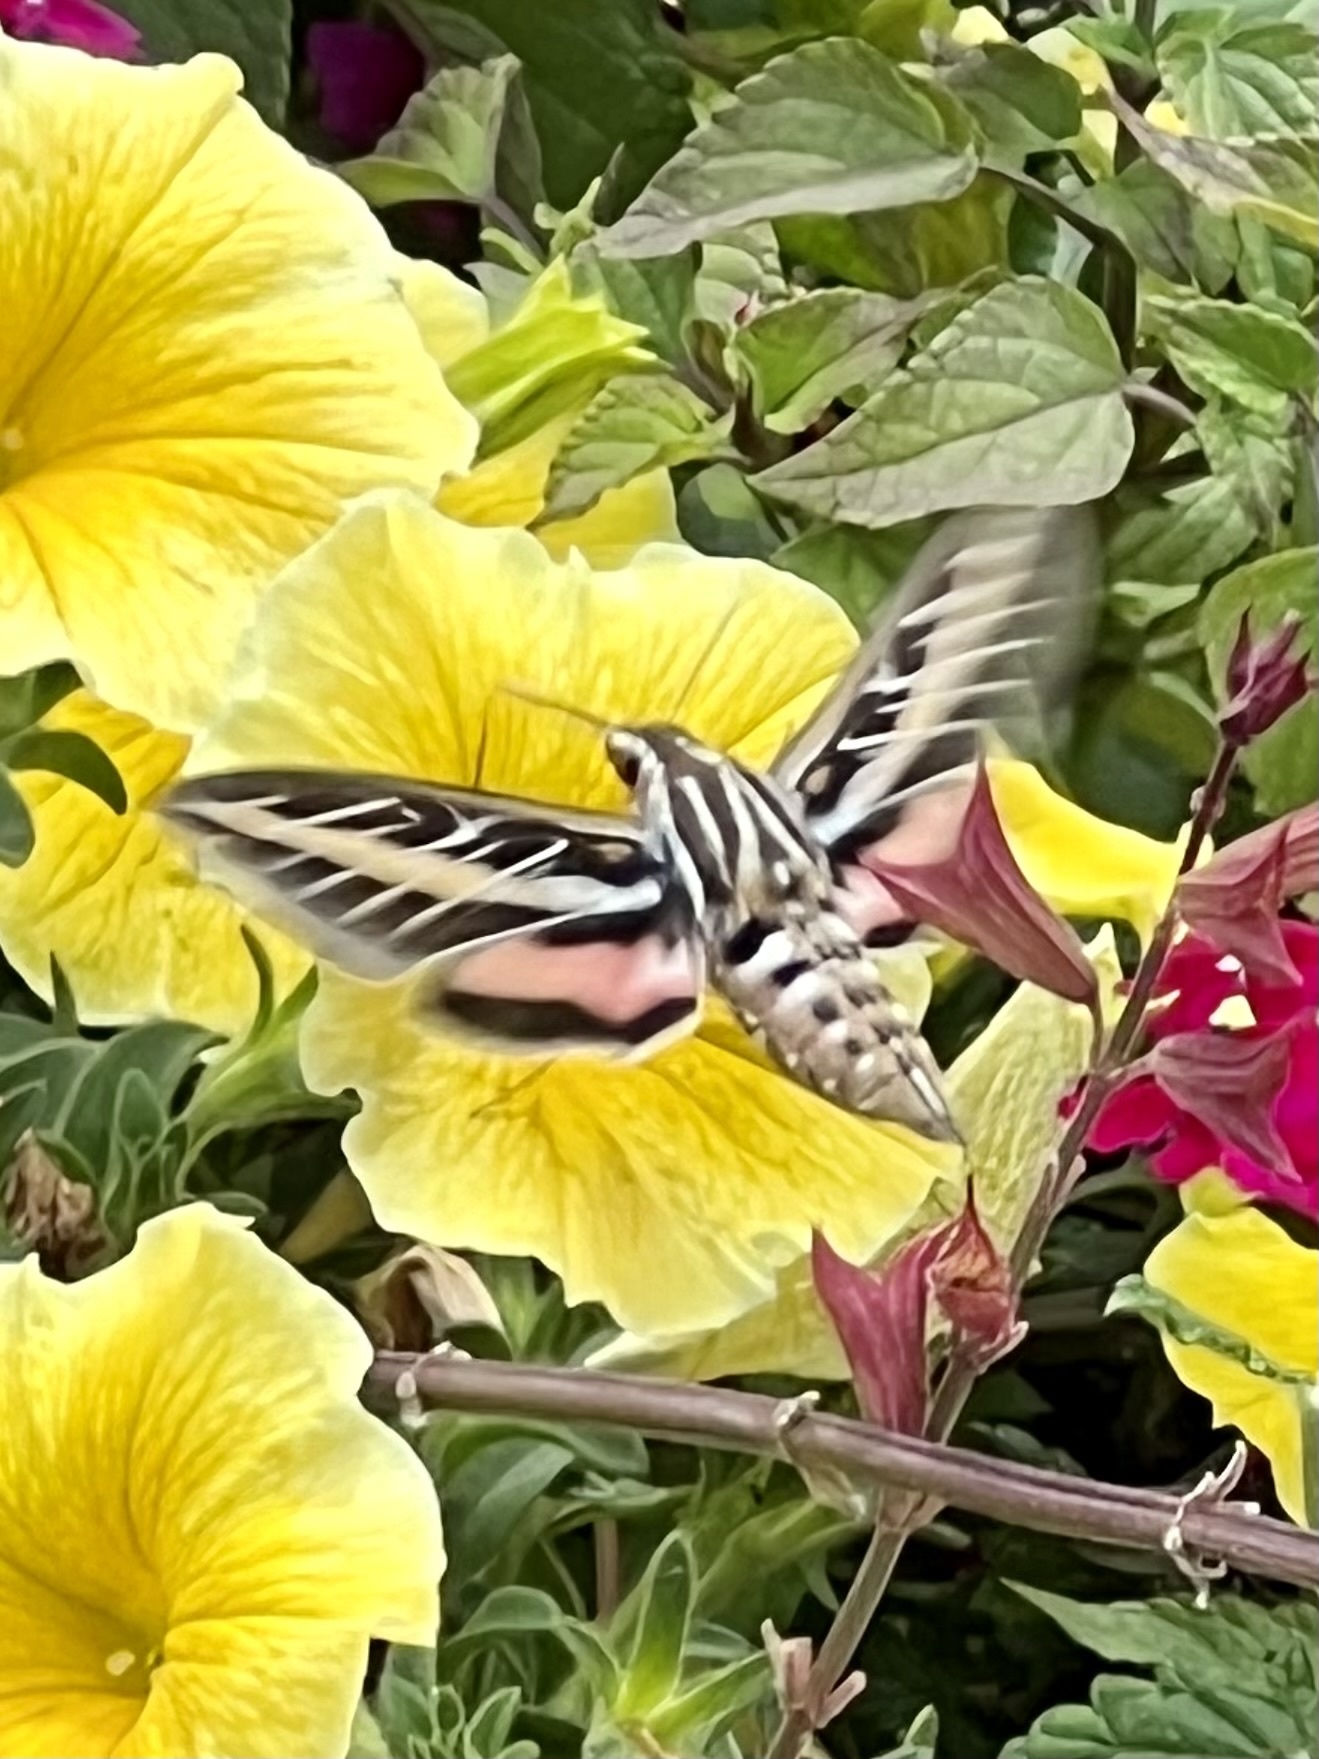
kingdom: Animalia
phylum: Arthropoda
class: Insecta
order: Lepidoptera
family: Sphingidae
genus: Hyles
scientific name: Hyles lineata
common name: White-lined sphinx
